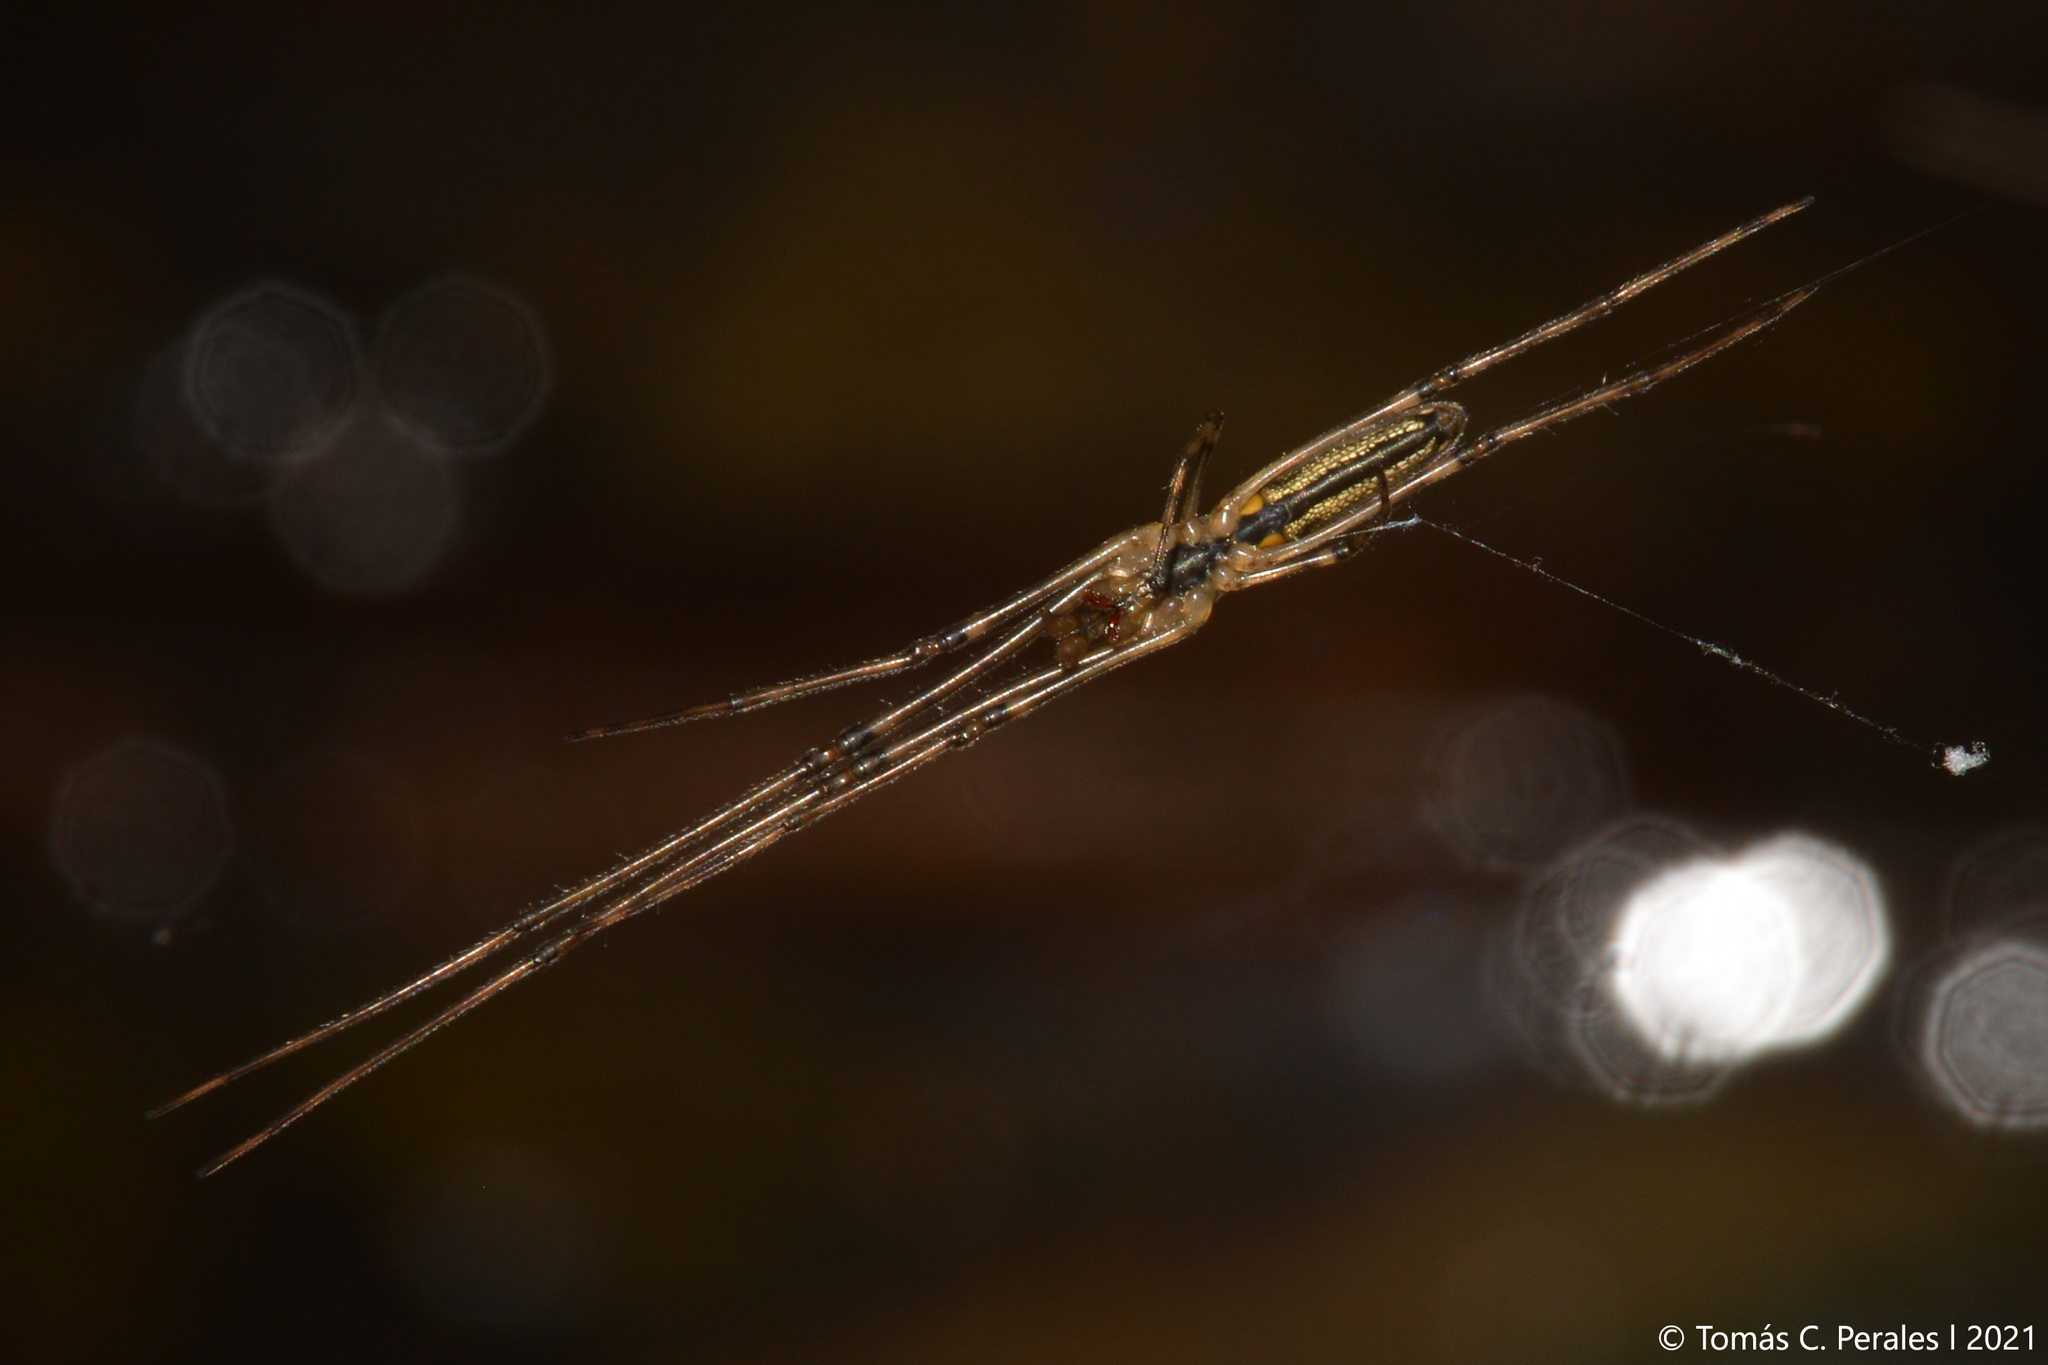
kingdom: Animalia
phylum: Arthropoda
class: Arachnida
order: Araneae
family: Tetragnathidae
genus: Tetragnatha
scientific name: Tetragnatha
